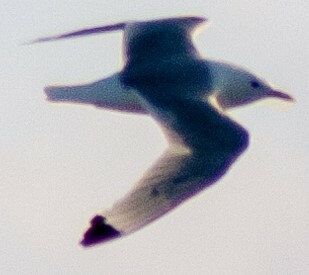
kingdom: Animalia
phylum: Chordata
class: Aves
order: Charadriiformes
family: Laridae
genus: Rissa
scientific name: Rissa tridactyla
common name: Black-legged kittiwake
